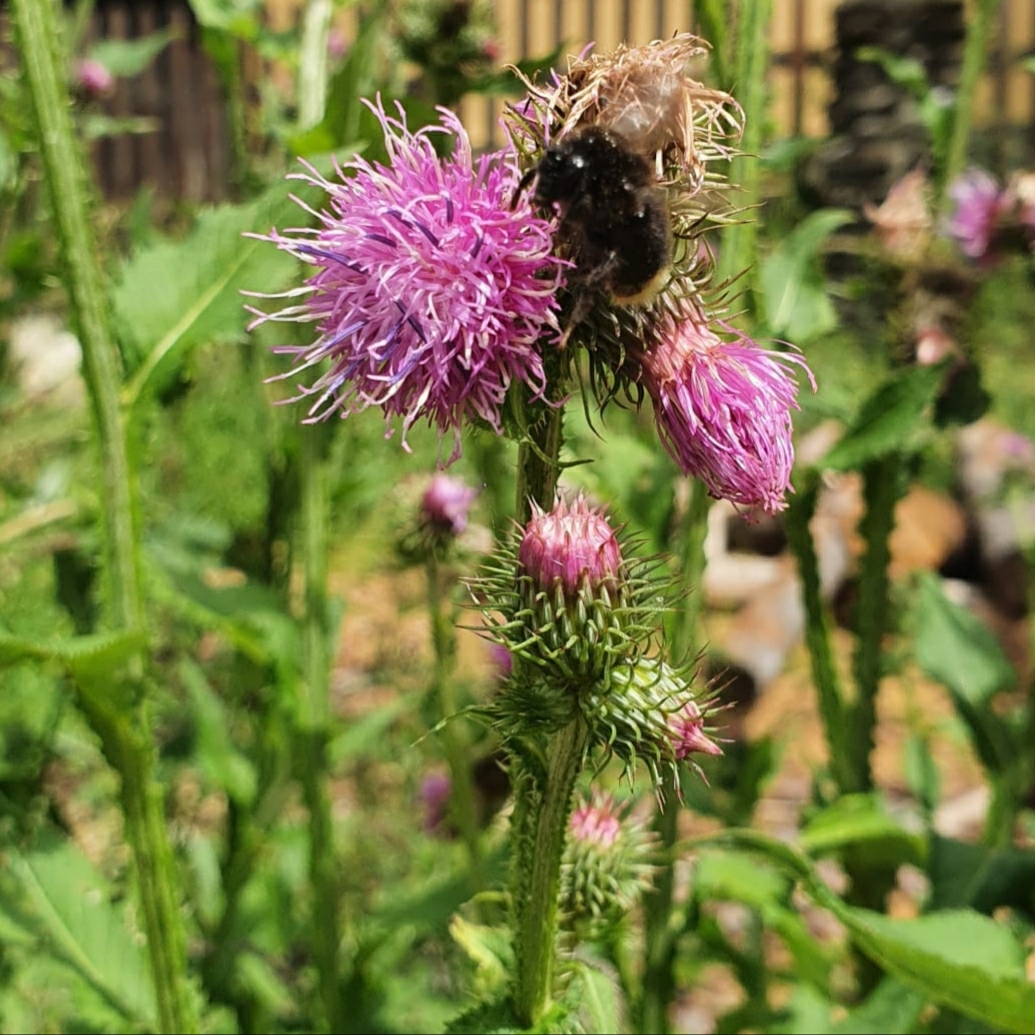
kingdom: Plantae
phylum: Tracheophyta
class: Magnoliopsida
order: Asterales
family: Asteraceae
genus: Carduus
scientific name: Carduus crispus
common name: Welted thistle
